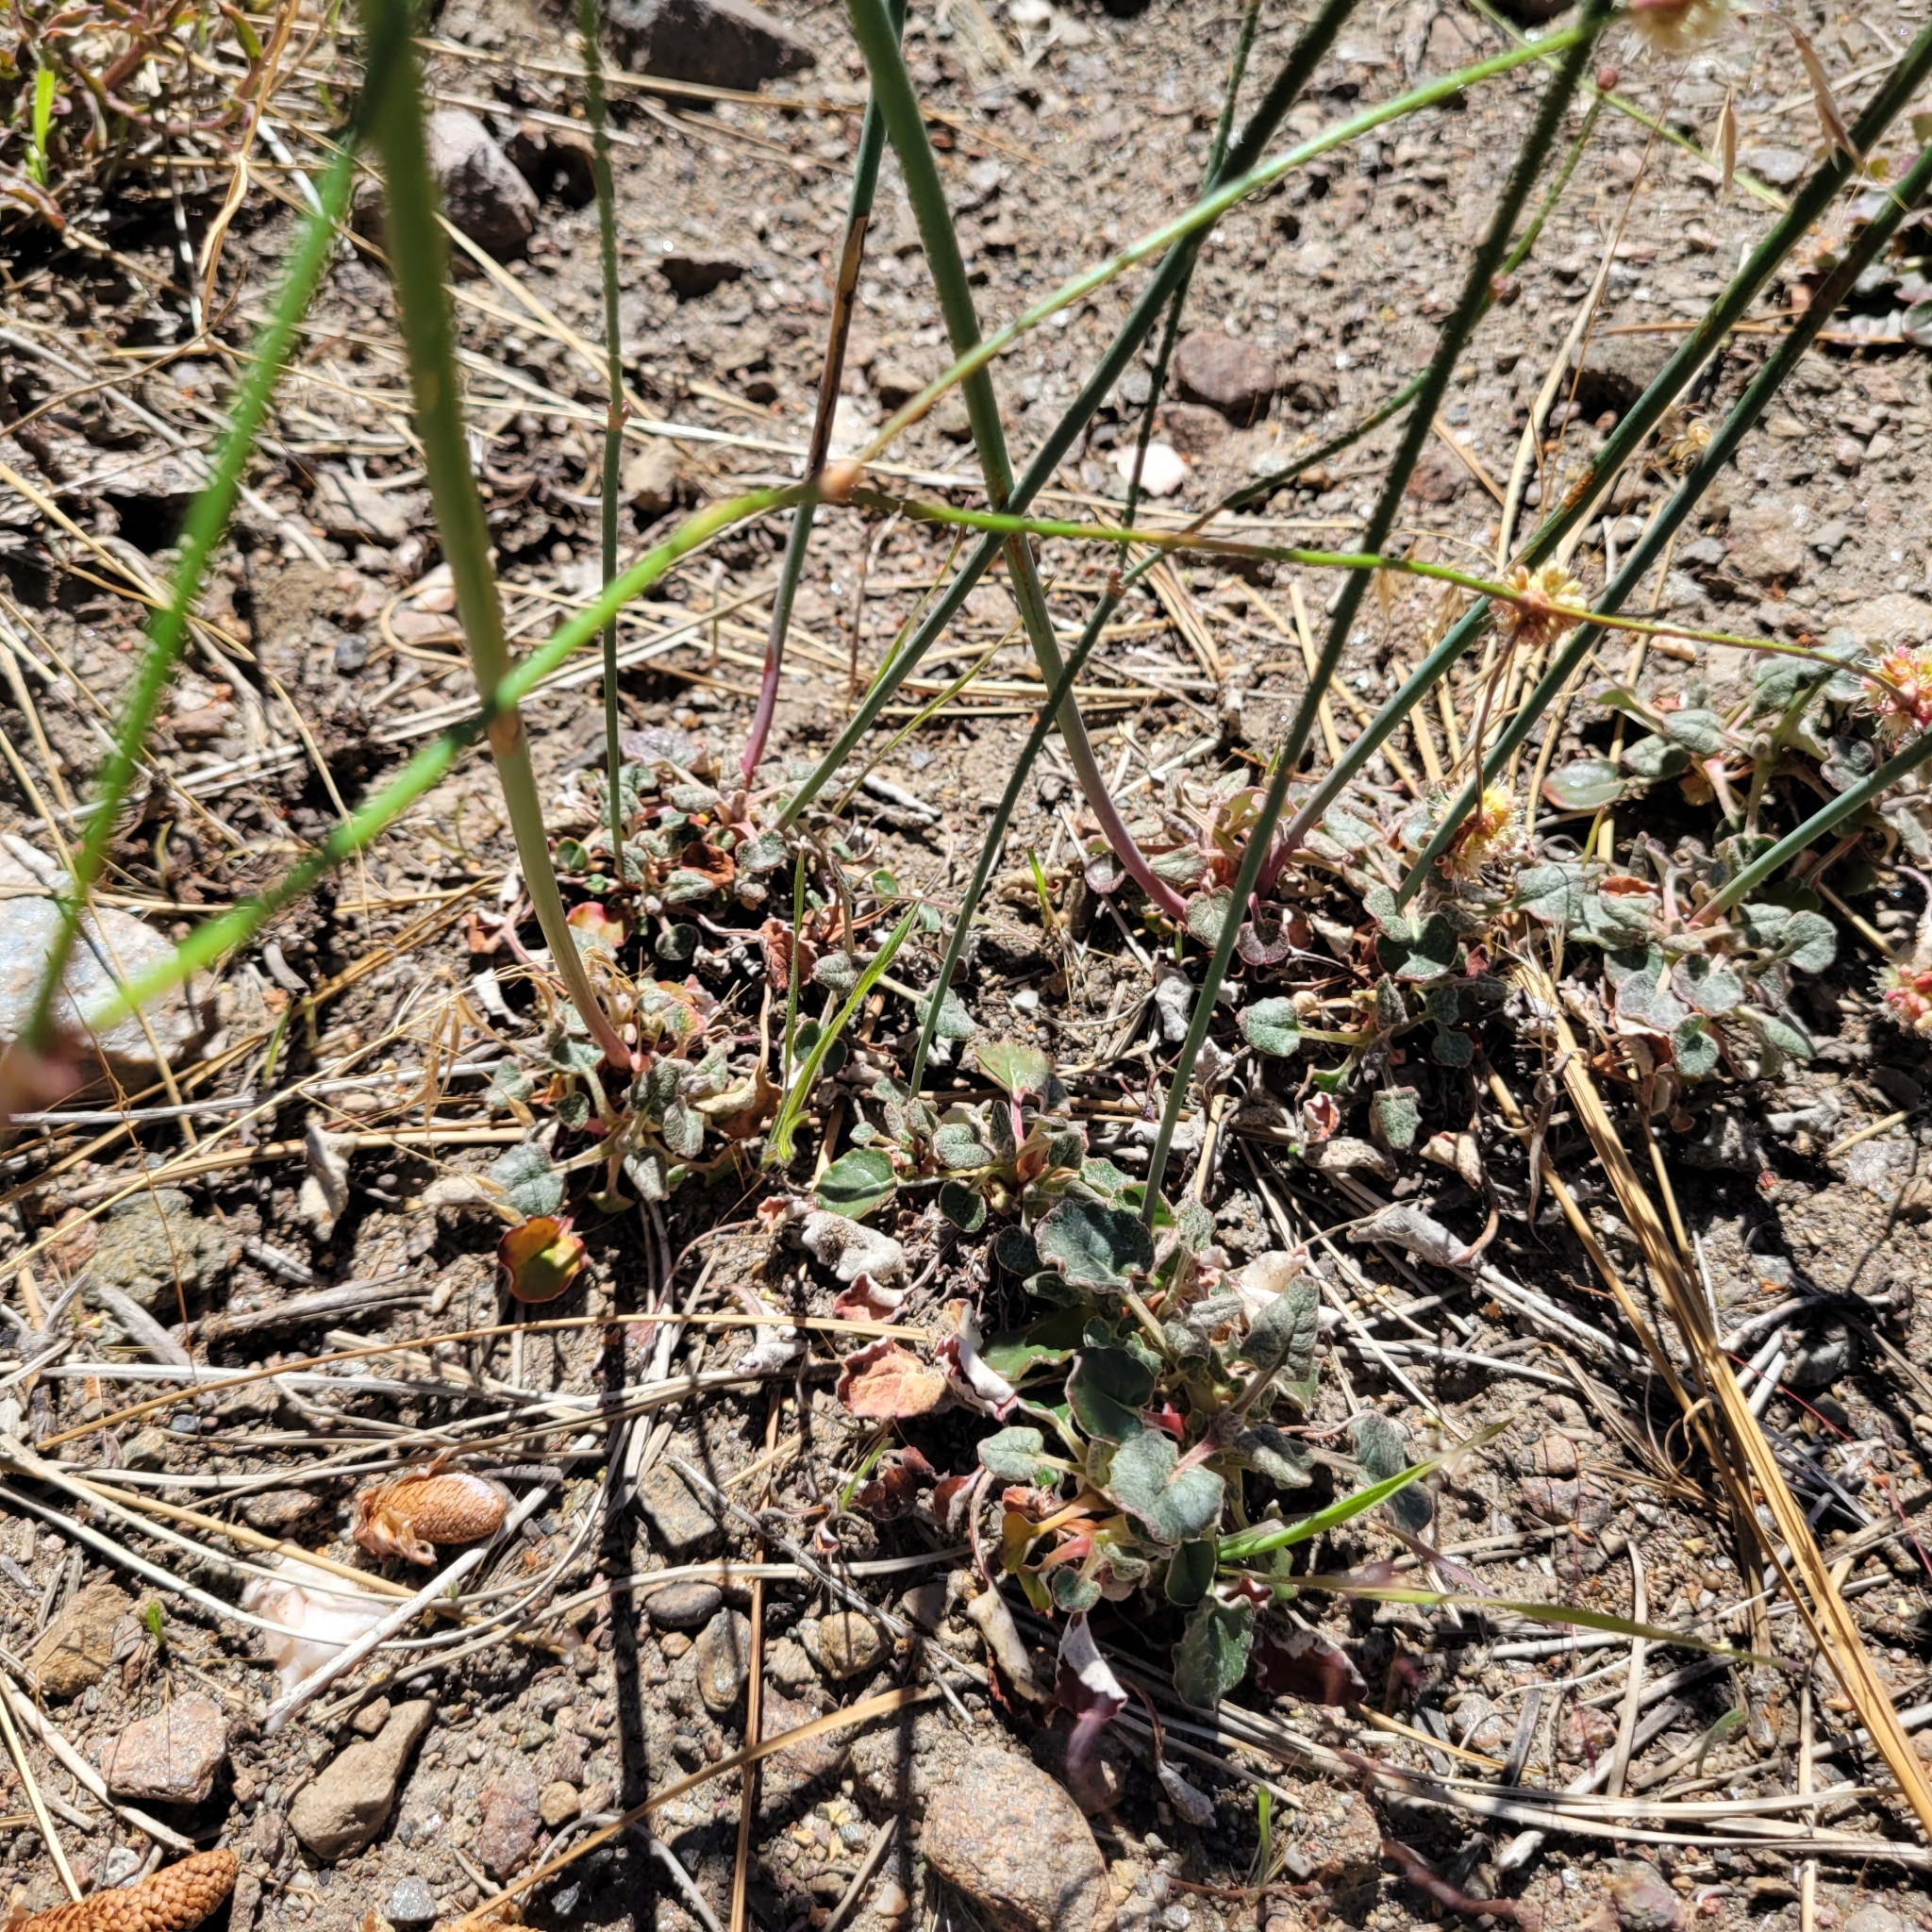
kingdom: Plantae
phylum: Tracheophyta
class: Magnoliopsida
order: Caryophyllales
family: Polygonaceae
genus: Eriogonum
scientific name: Eriogonum nudum
